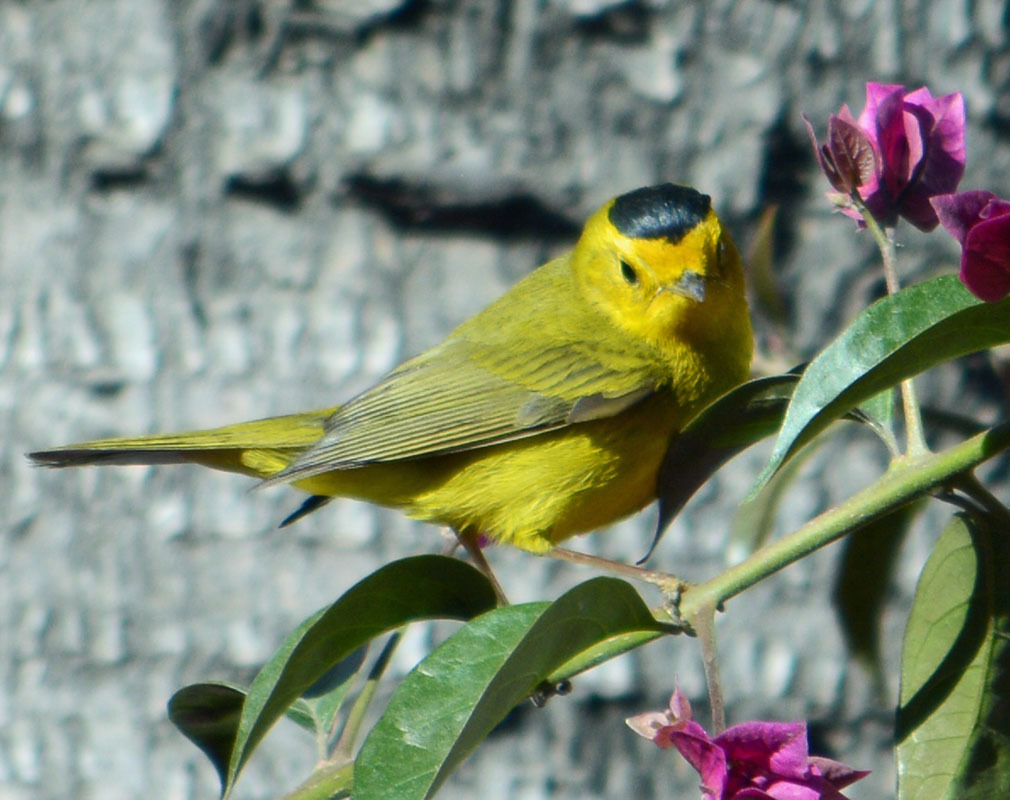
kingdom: Animalia
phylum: Chordata
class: Aves
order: Passeriformes
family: Parulidae
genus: Cardellina
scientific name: Cardellina pusilla
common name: Wilson's warbler
